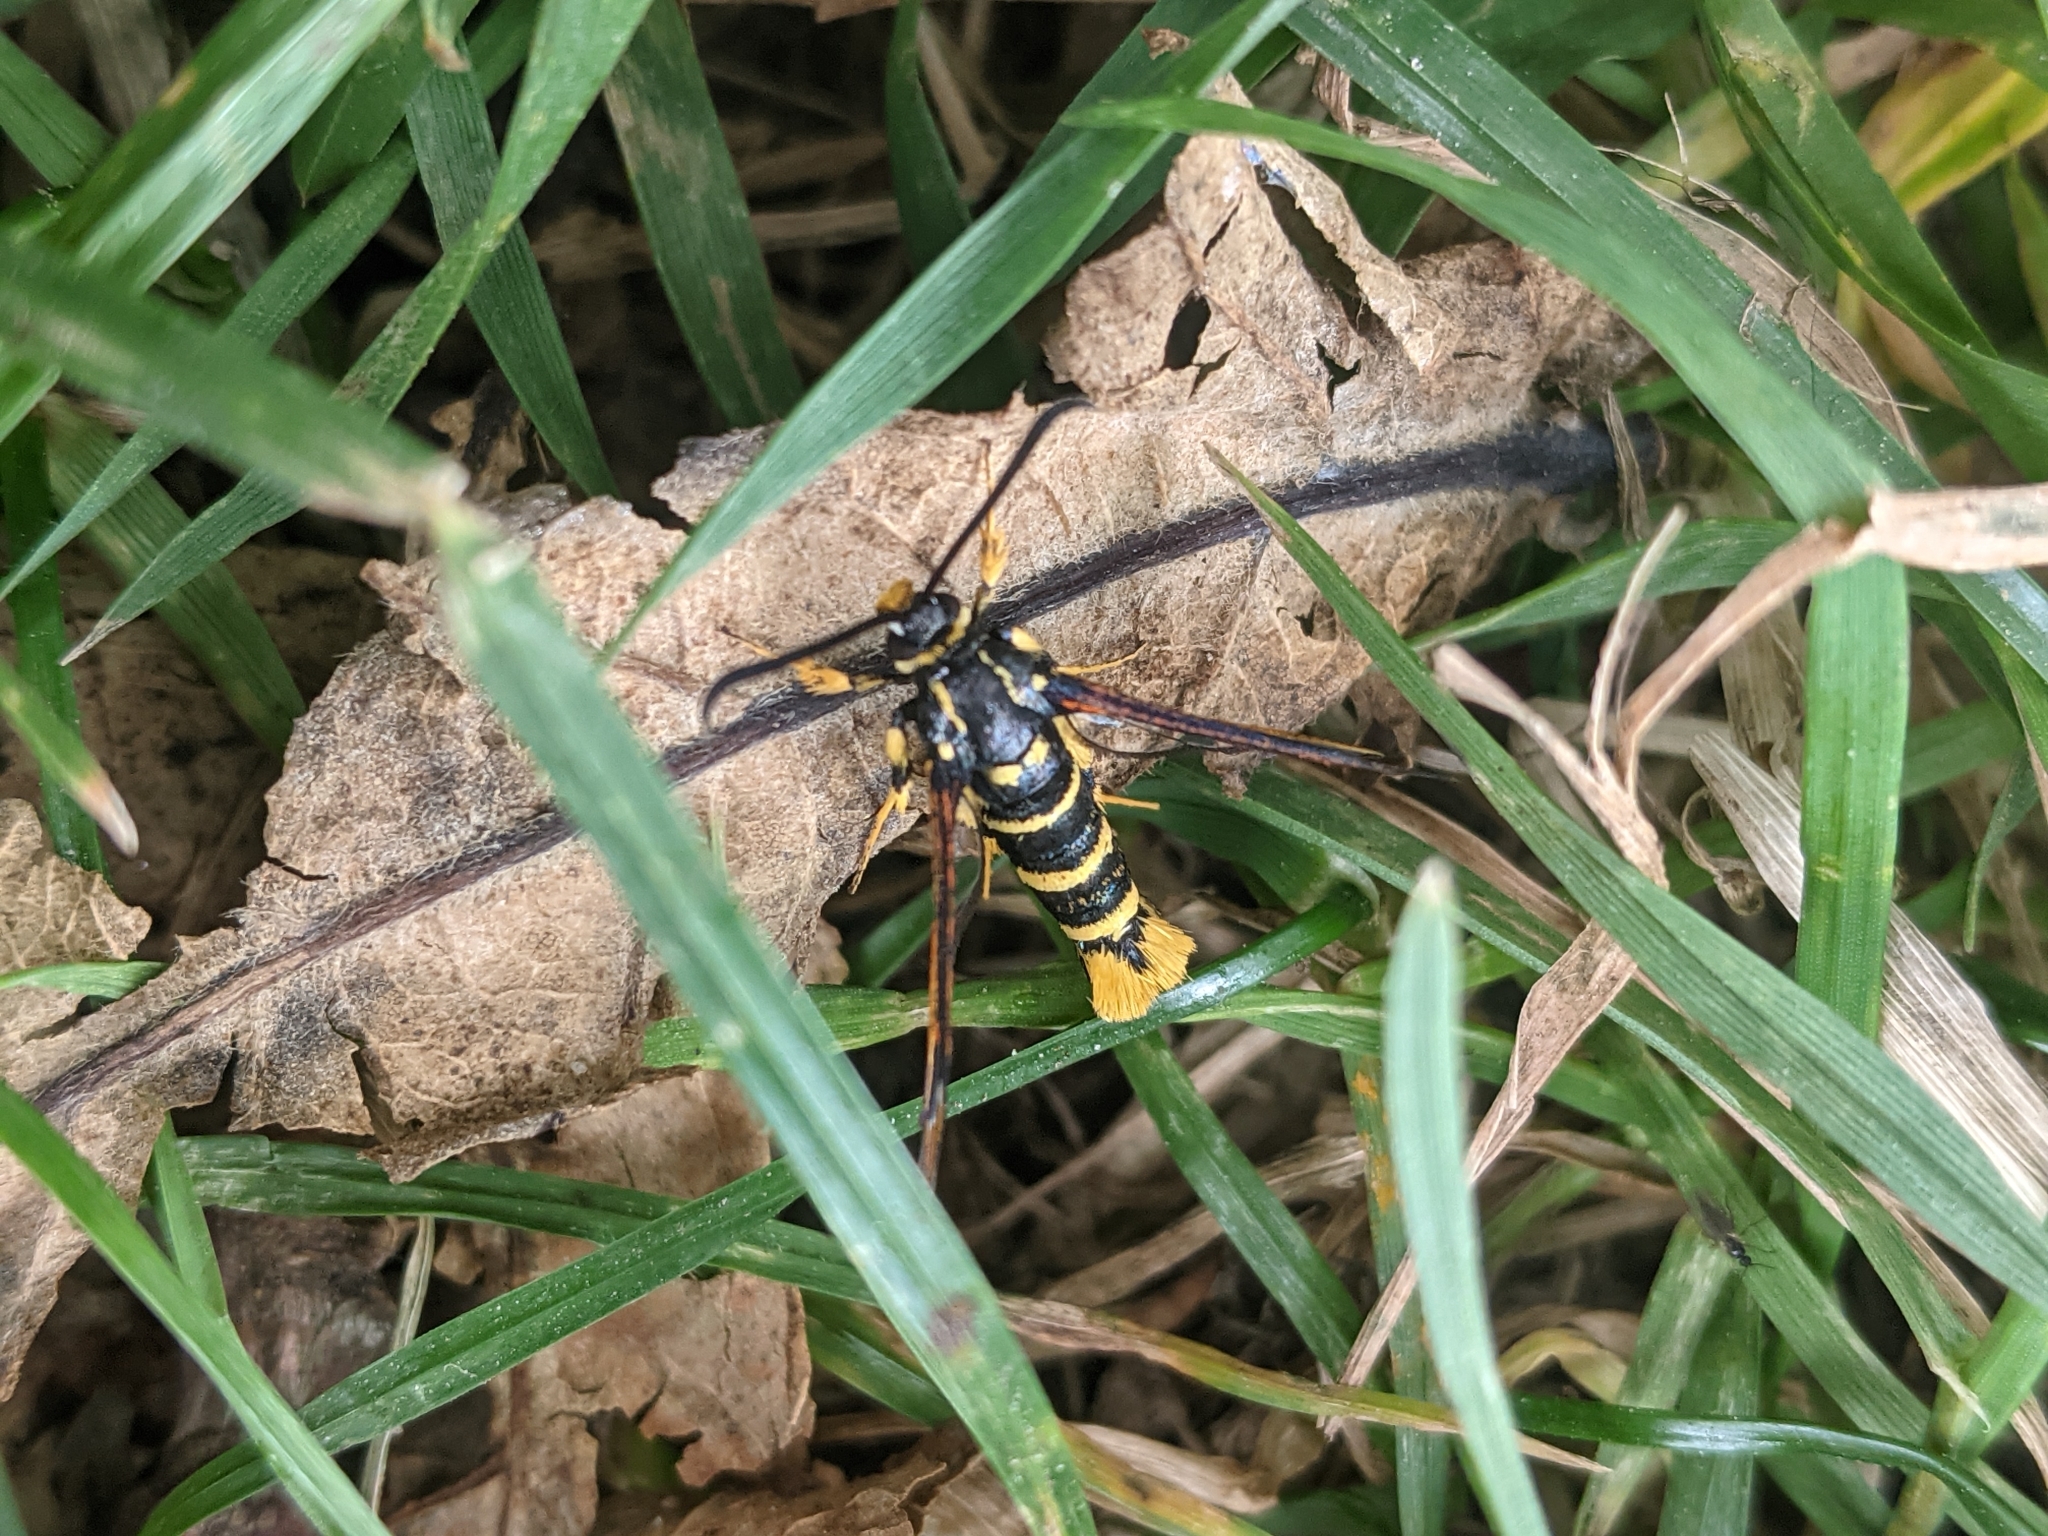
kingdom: Animalia
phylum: Arthropoda
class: Insecta
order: Lepidoptera
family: Sesiidae
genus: Synanthedon
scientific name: Synanthedon vespiformis
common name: Yellow-legged clearwing
